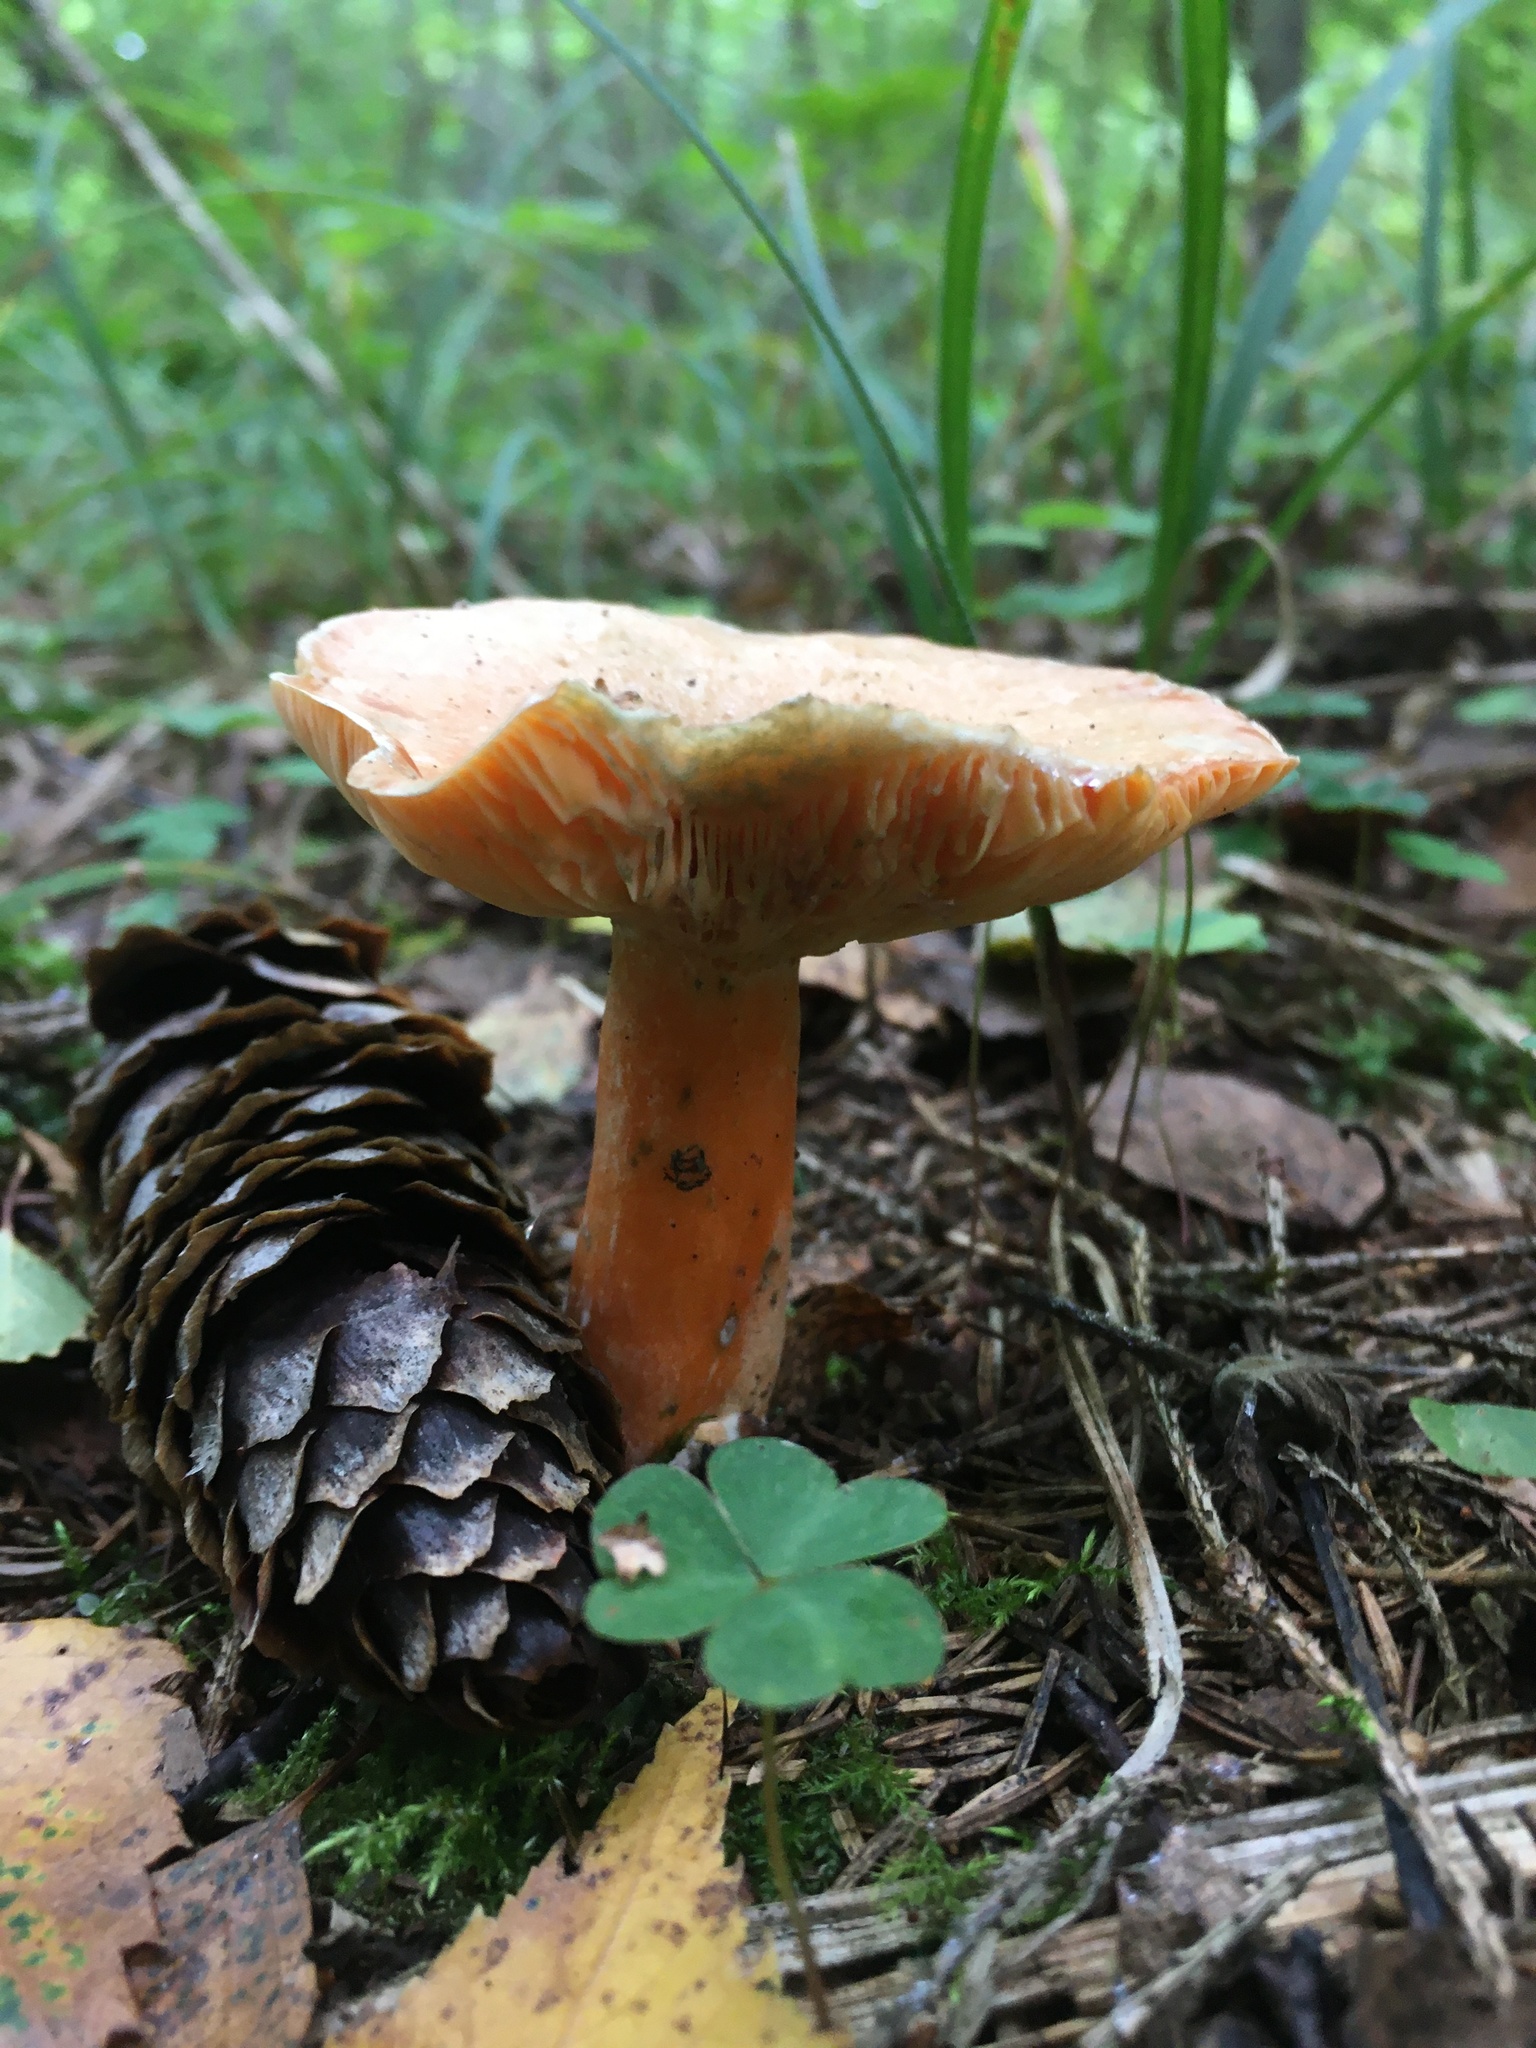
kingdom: Fungi
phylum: Basidiomycota
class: Agaricomycetes
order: Russulales
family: Russulaceae
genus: Lactarius
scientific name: Lactarius deterrimus
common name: False saffron milkcap
